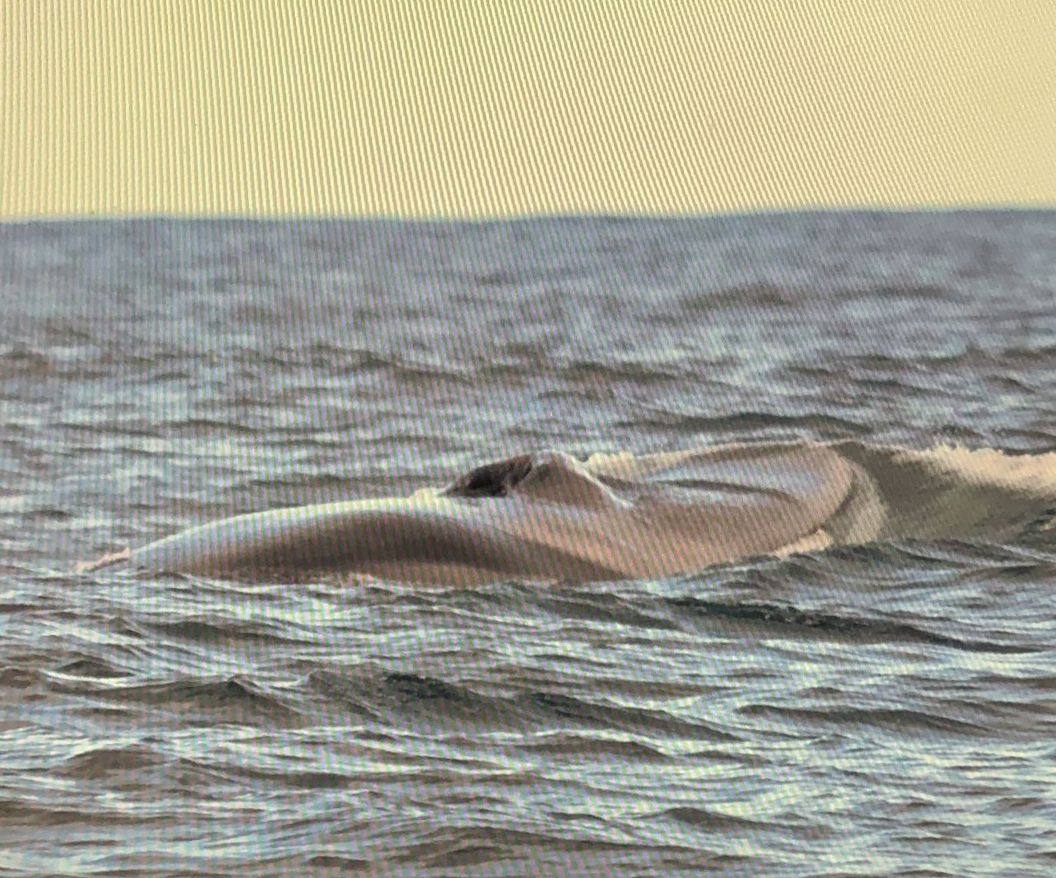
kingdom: Animalia
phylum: Chordata
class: Mammalia
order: Cetacea
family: Balaenopteridae
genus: Balaenoptera
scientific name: Balaenoptera physalus
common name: Fin whale
